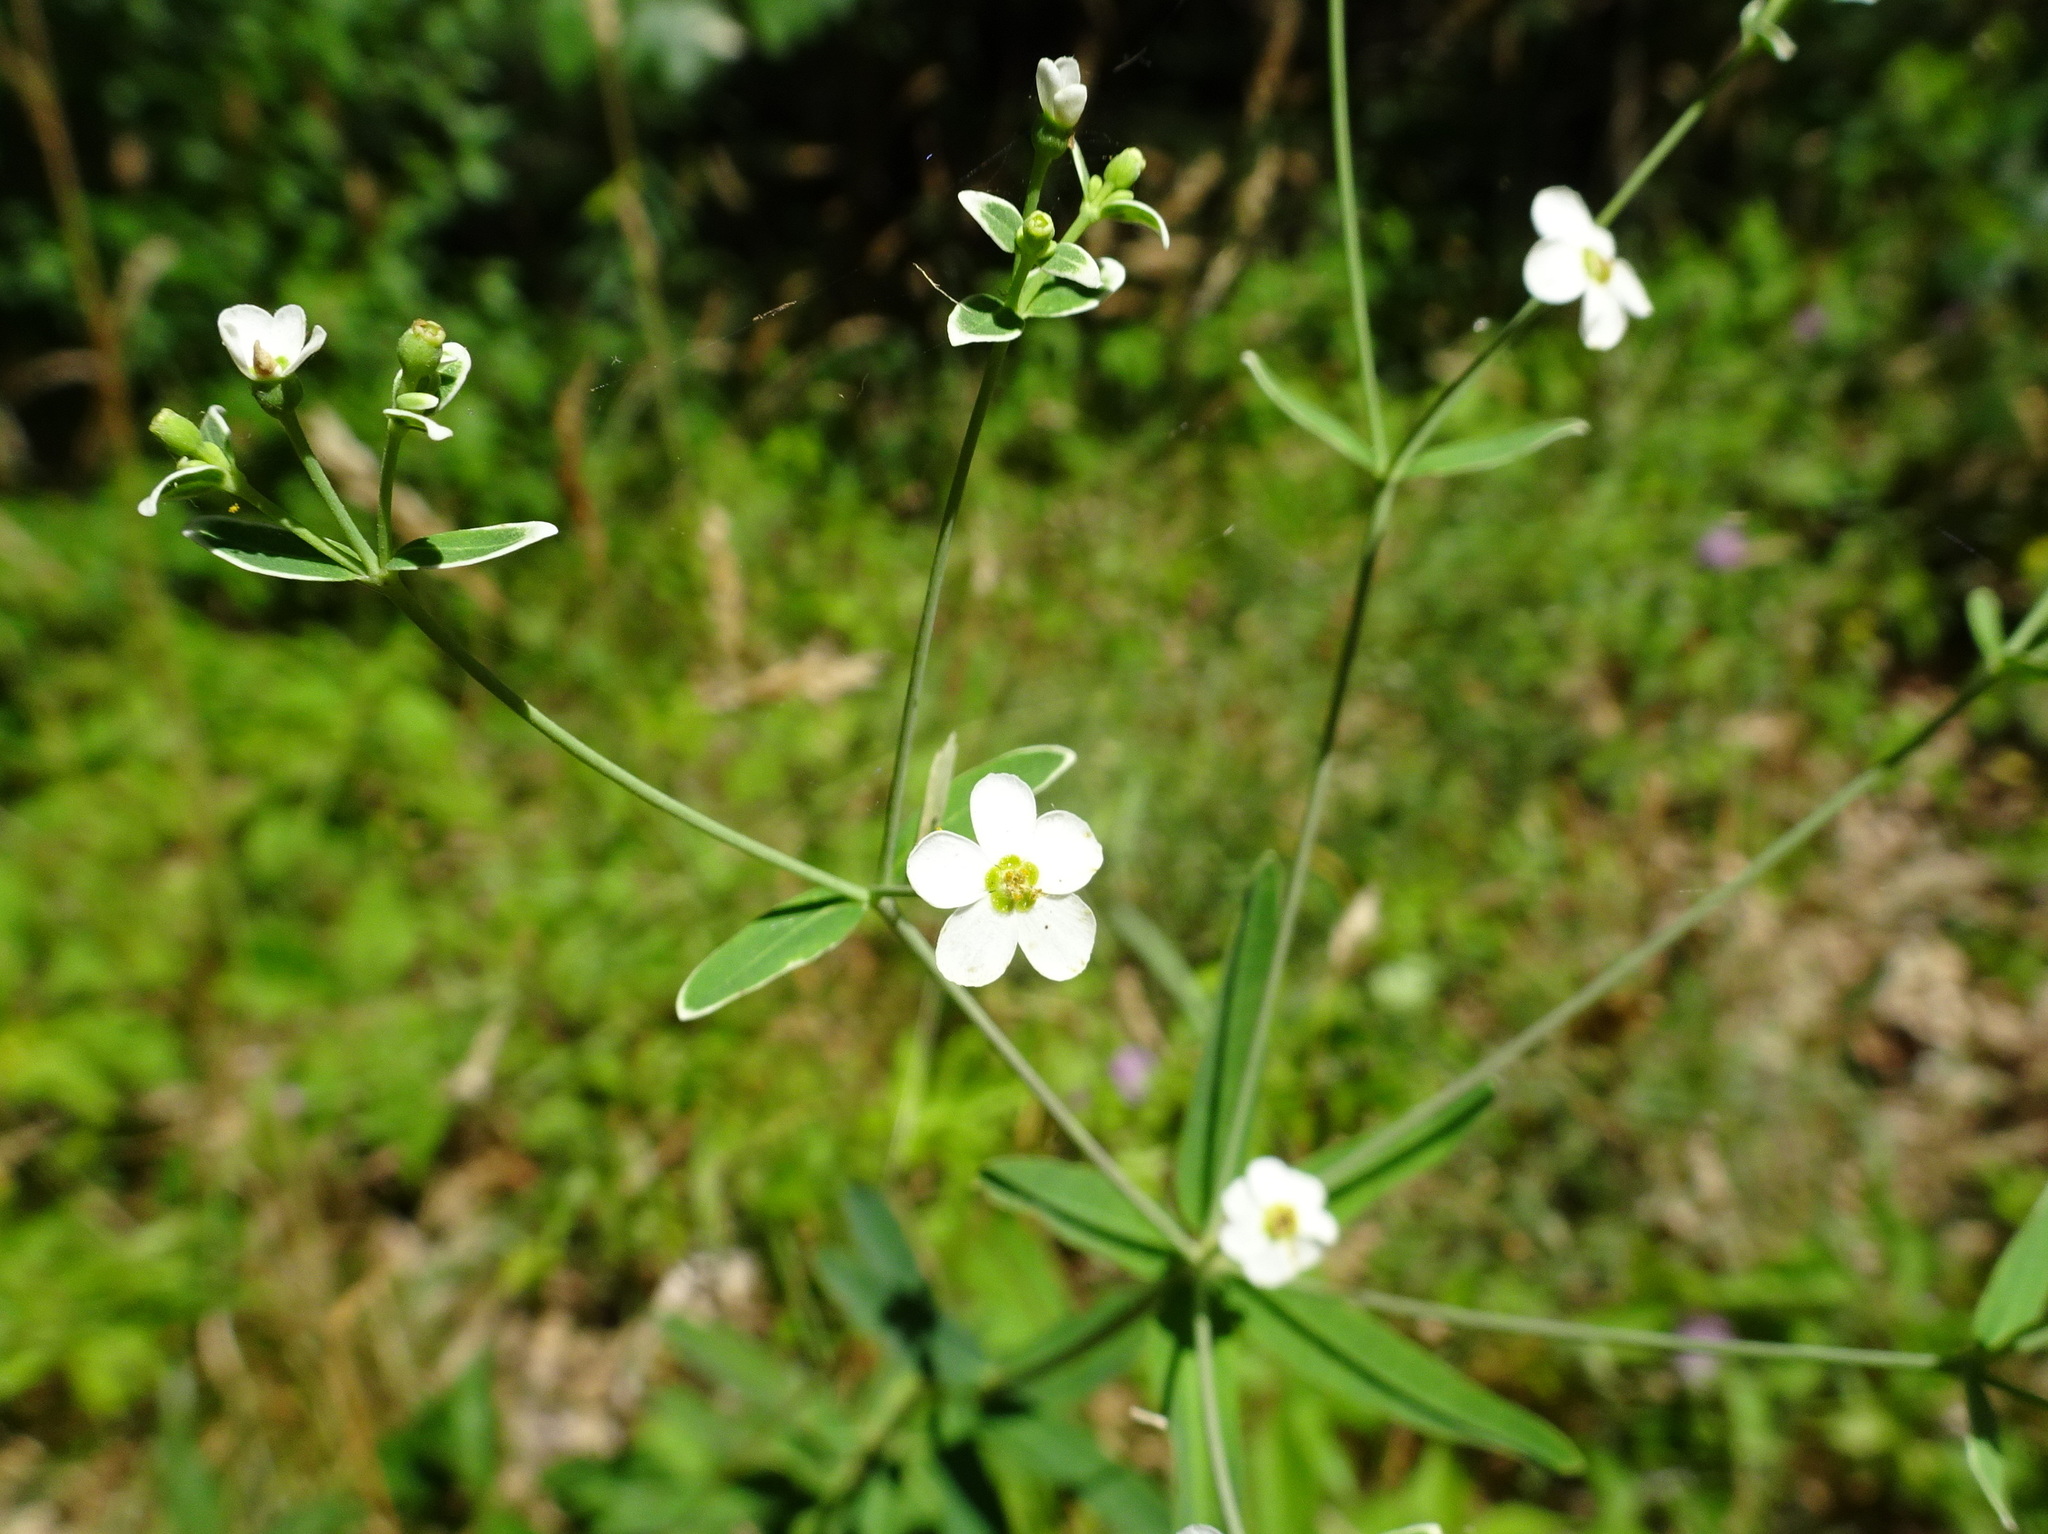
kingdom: Plantae
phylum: Tracheophyta
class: Magnoliopsida
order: Malpighiales
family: Euphorbiaceae
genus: Euphorbia
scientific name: Euphorbia corollata
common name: Flowering spurge
